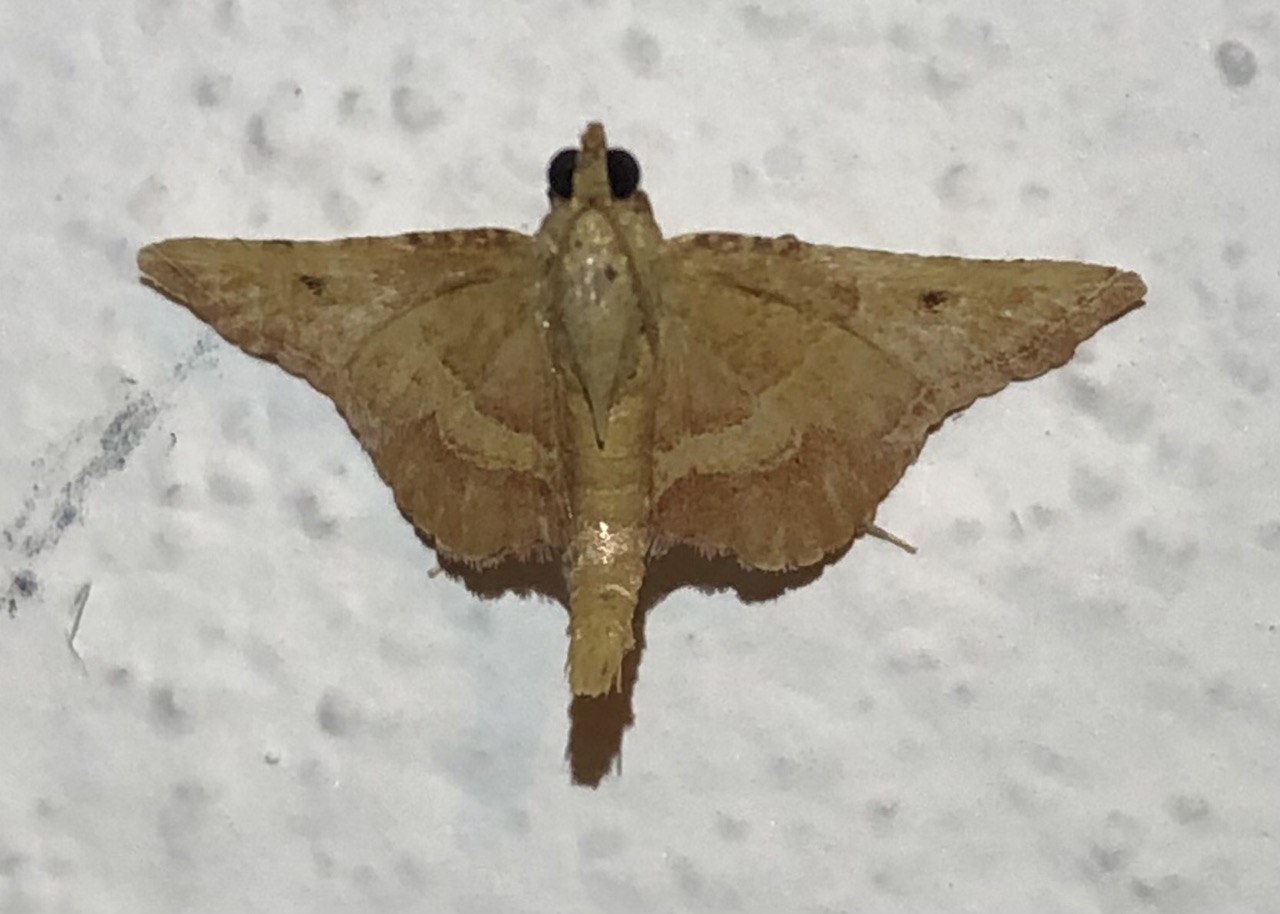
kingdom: Animalia
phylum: Arthropoda
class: Insecta
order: Lepidoptera
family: Pyralidae
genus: Endotricha
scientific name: Endotricha flammealis
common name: Rosy tabby
